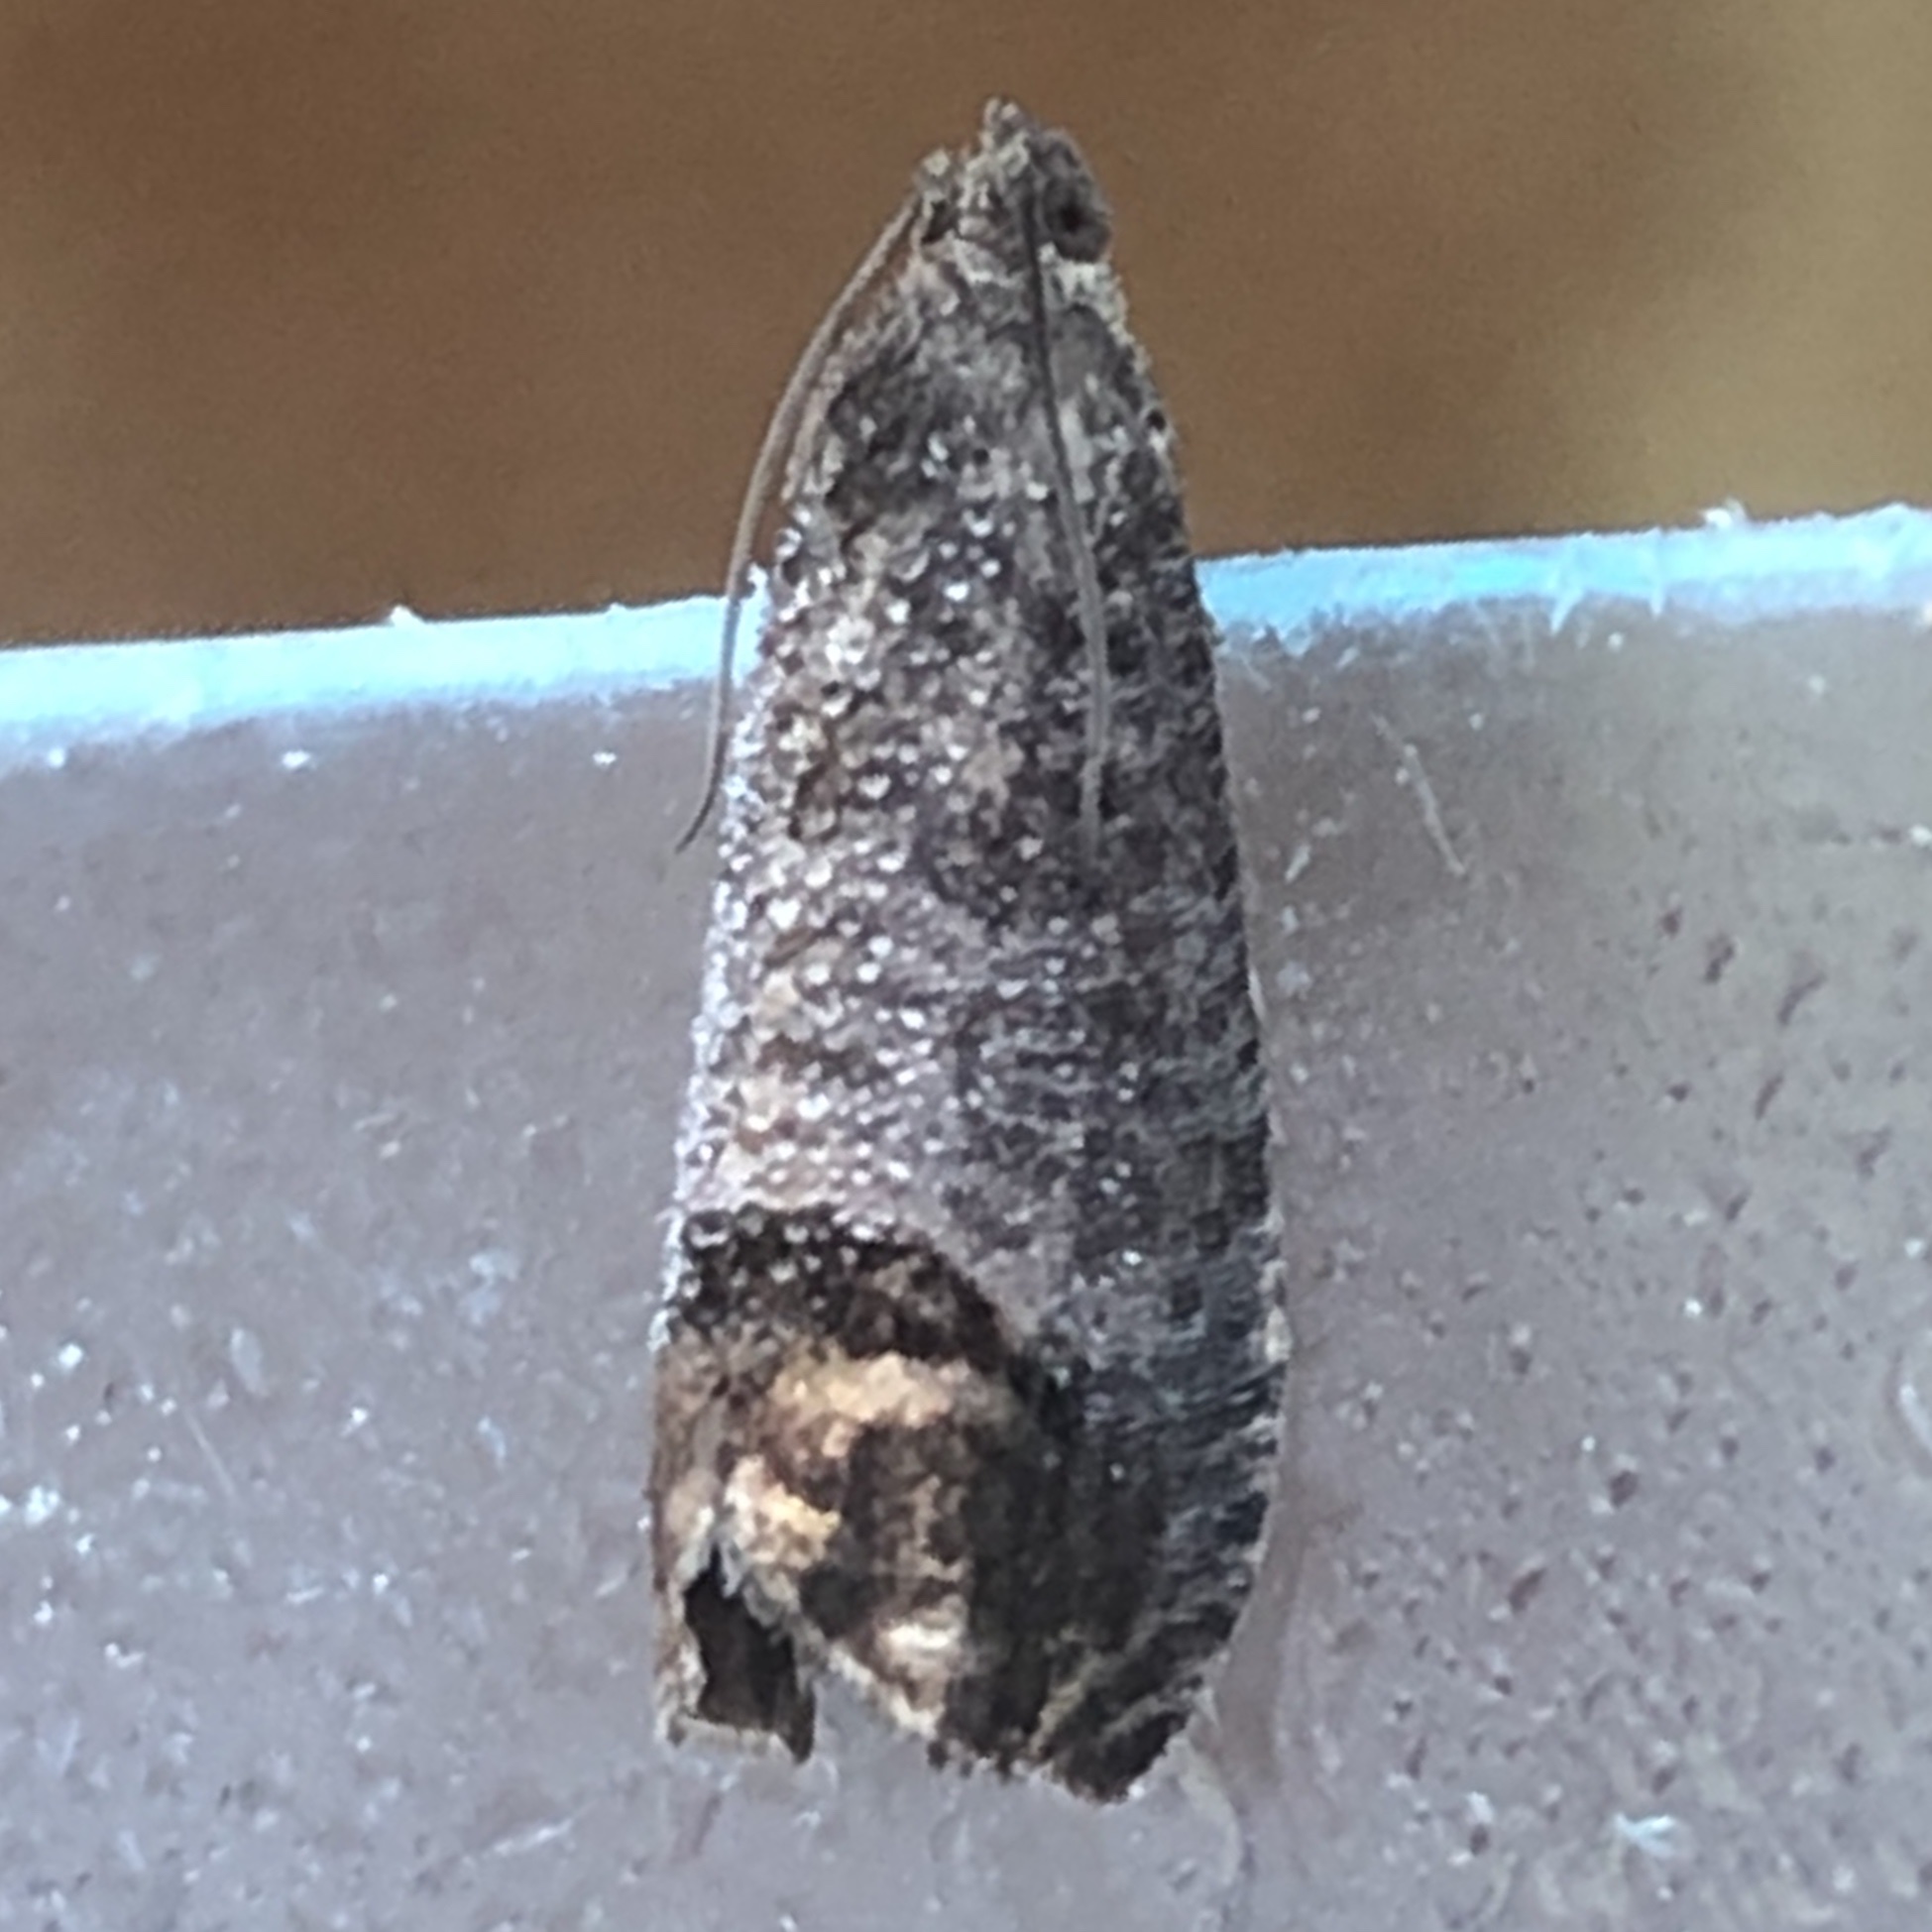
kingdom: Animalia
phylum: Arthropoda
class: Insecta
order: Lepidoptera
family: Tortricidae
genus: Cydia
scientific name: Cydia pomonella
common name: Codling moth
